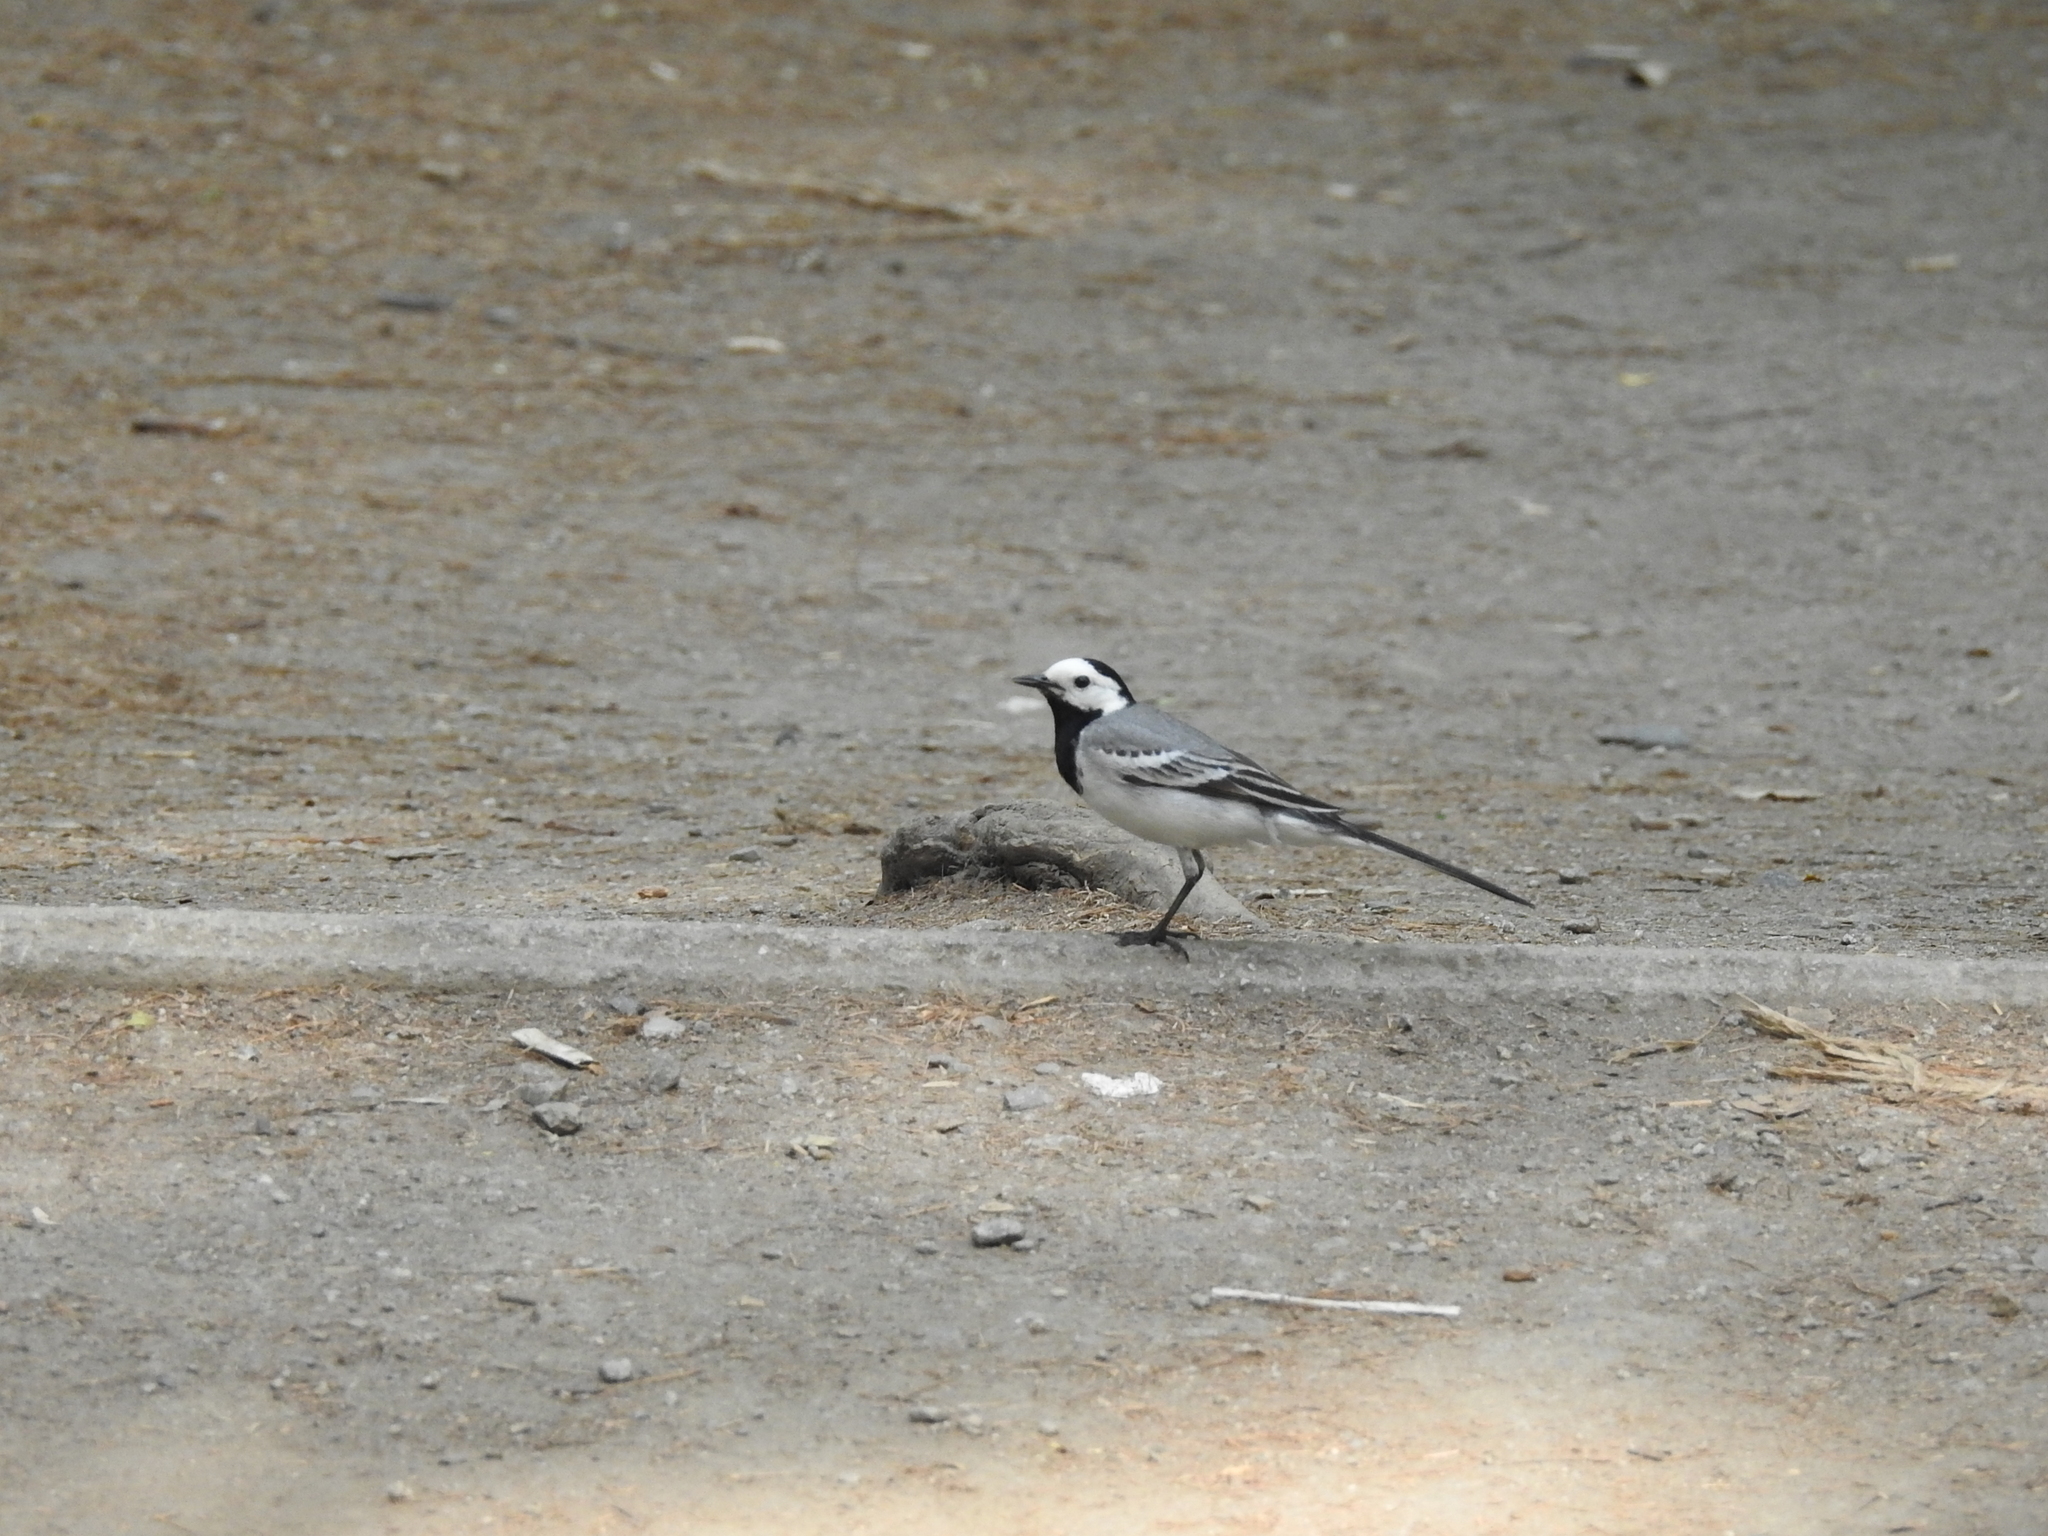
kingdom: Animalia
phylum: Chordata
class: Aves
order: Passeriformes
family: Motacillidae
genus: Motacilla
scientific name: Motacilla alba
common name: White wagtail
